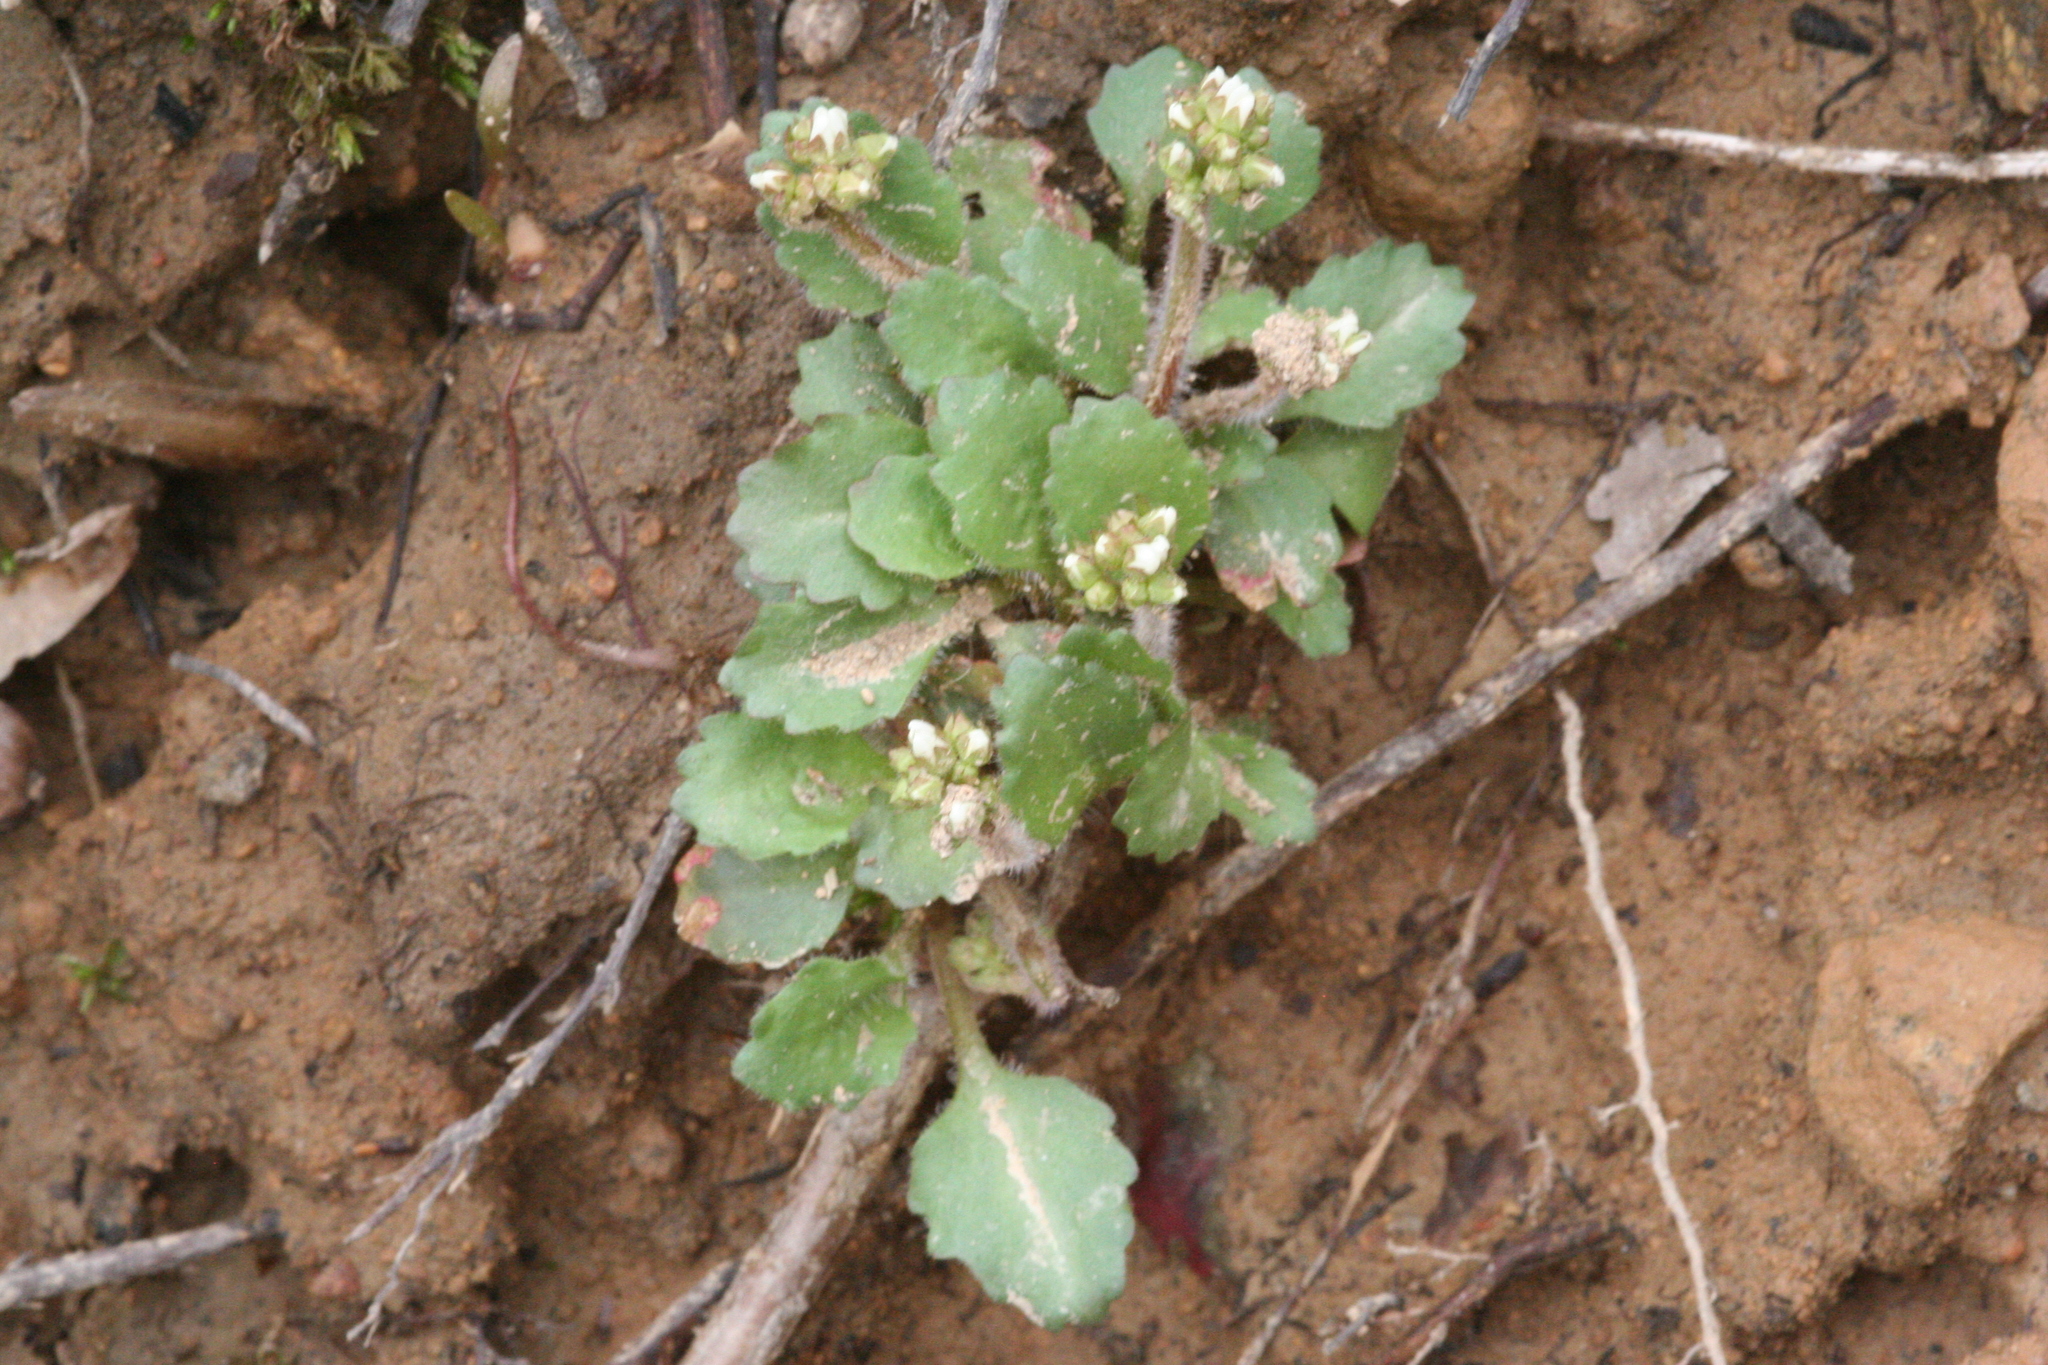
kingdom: Plantae
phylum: Tracheophyta
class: Magnoliopsida
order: Saxifragales
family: Saxifragaceae
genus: Micranthes
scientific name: Micranthes virginiensis
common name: Early saxifrage
